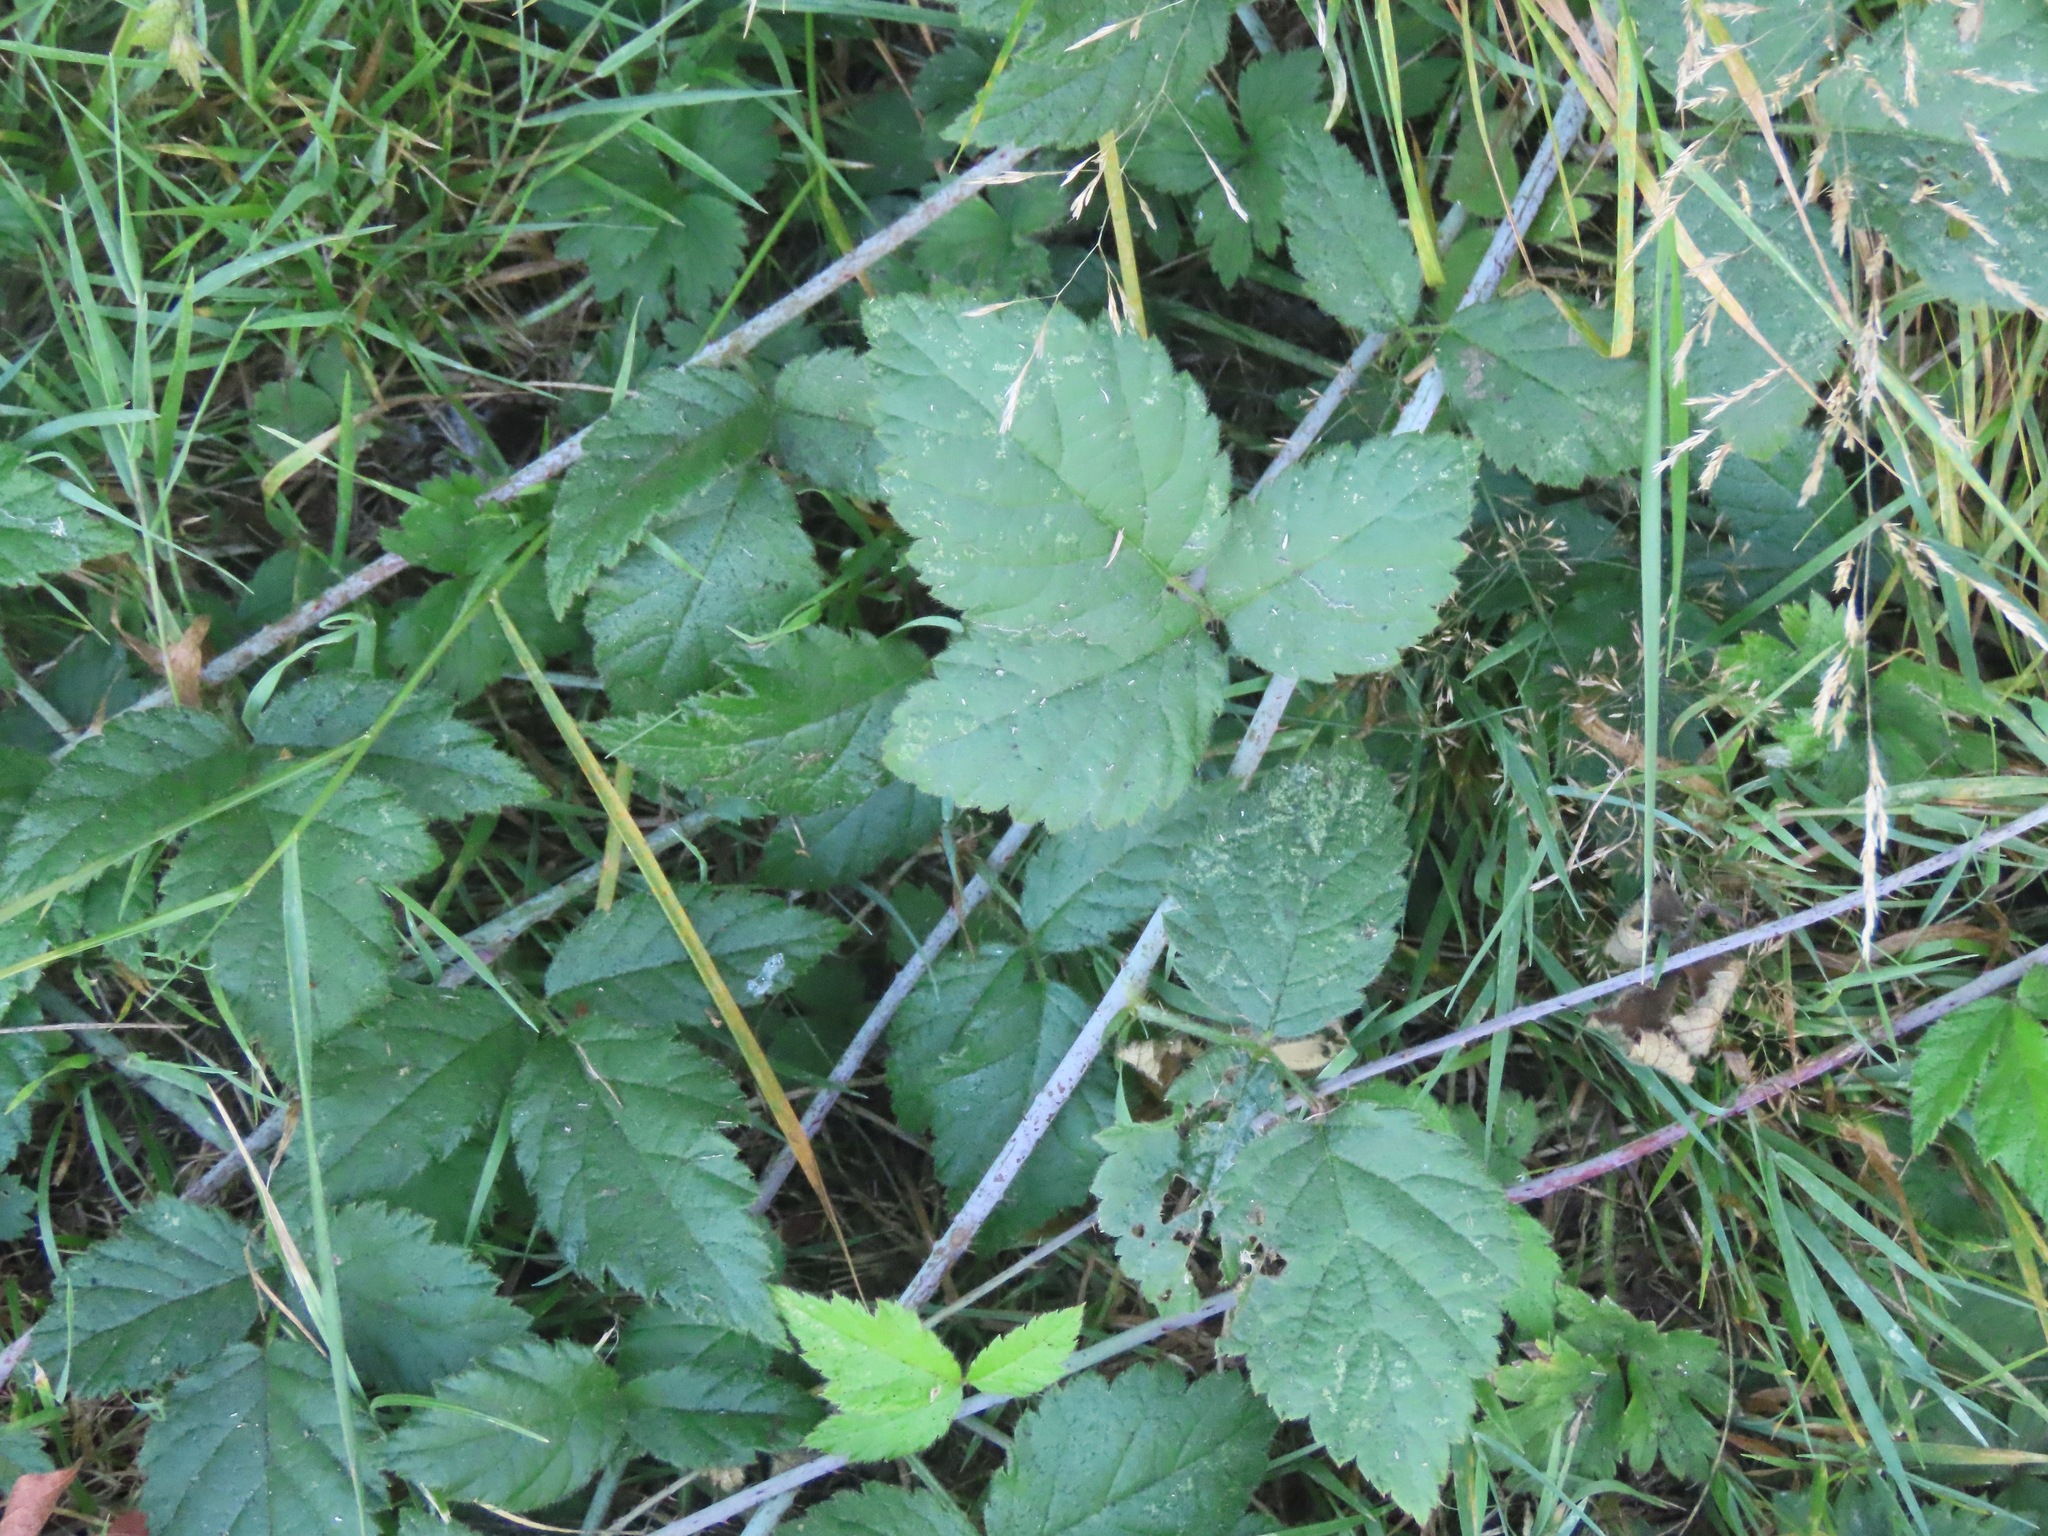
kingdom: Plantae
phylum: Tracheophyta
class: Magnoliopsida
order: Rosales
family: Rosaceae
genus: Rubus
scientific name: Rubus ursinus
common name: Pacific blackberry
